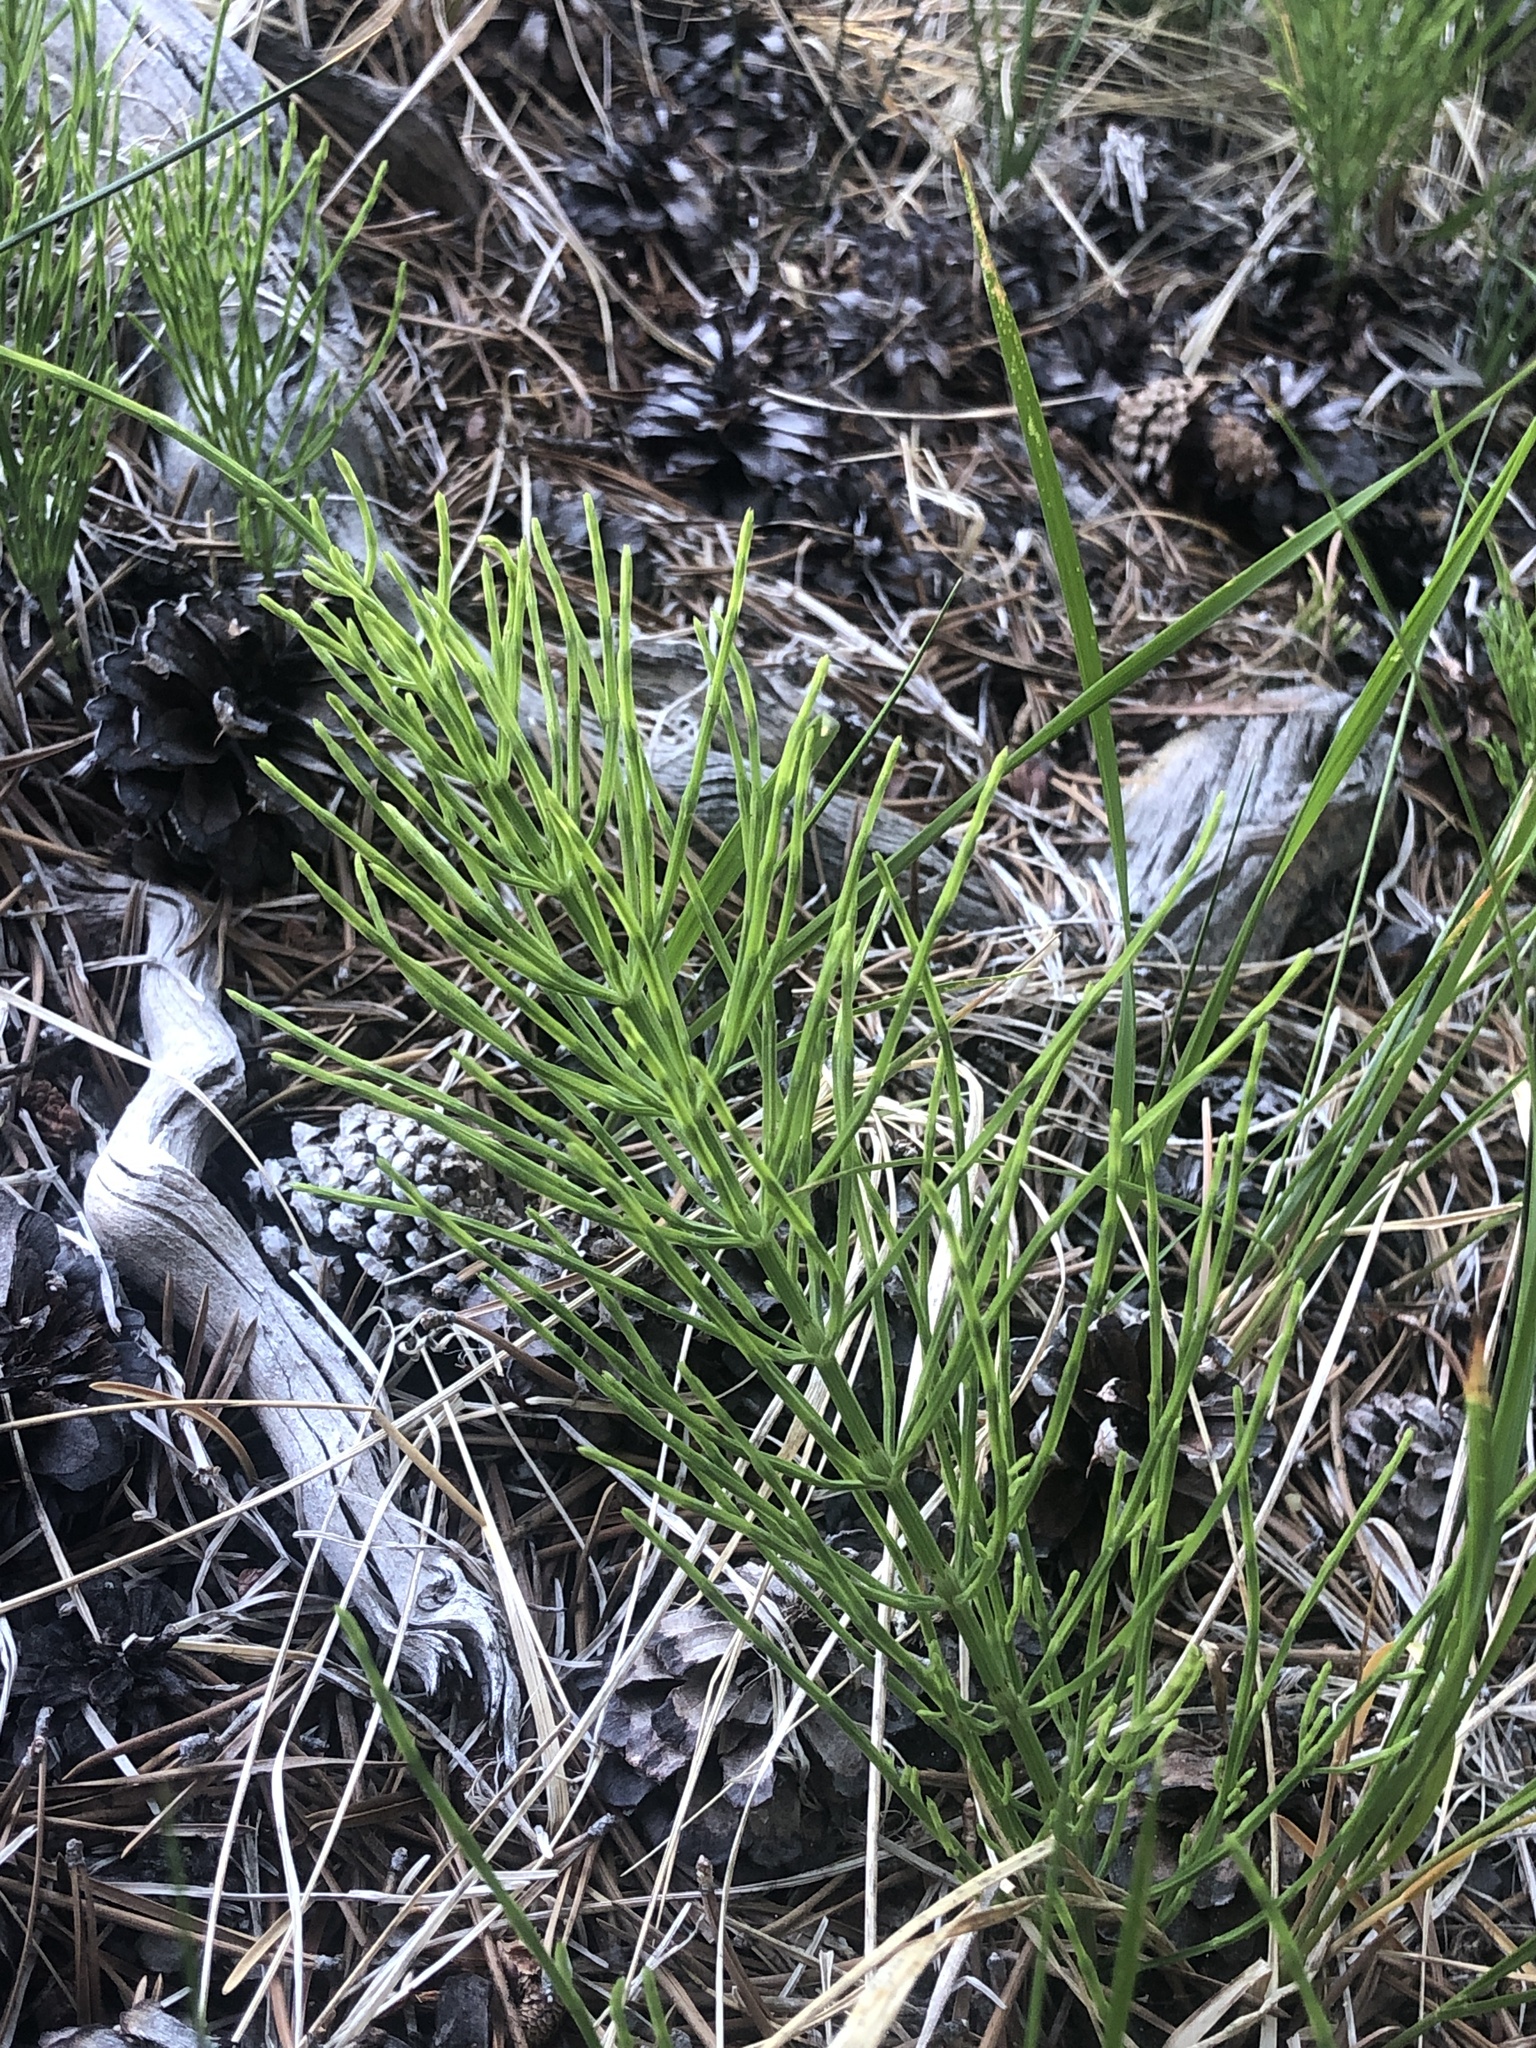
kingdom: Plantae
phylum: Tracheophyta
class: Polypodiopsida
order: Equisetales
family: Equisetaceae
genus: Equisetum
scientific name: Equisetum arvense
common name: Field horsetail
